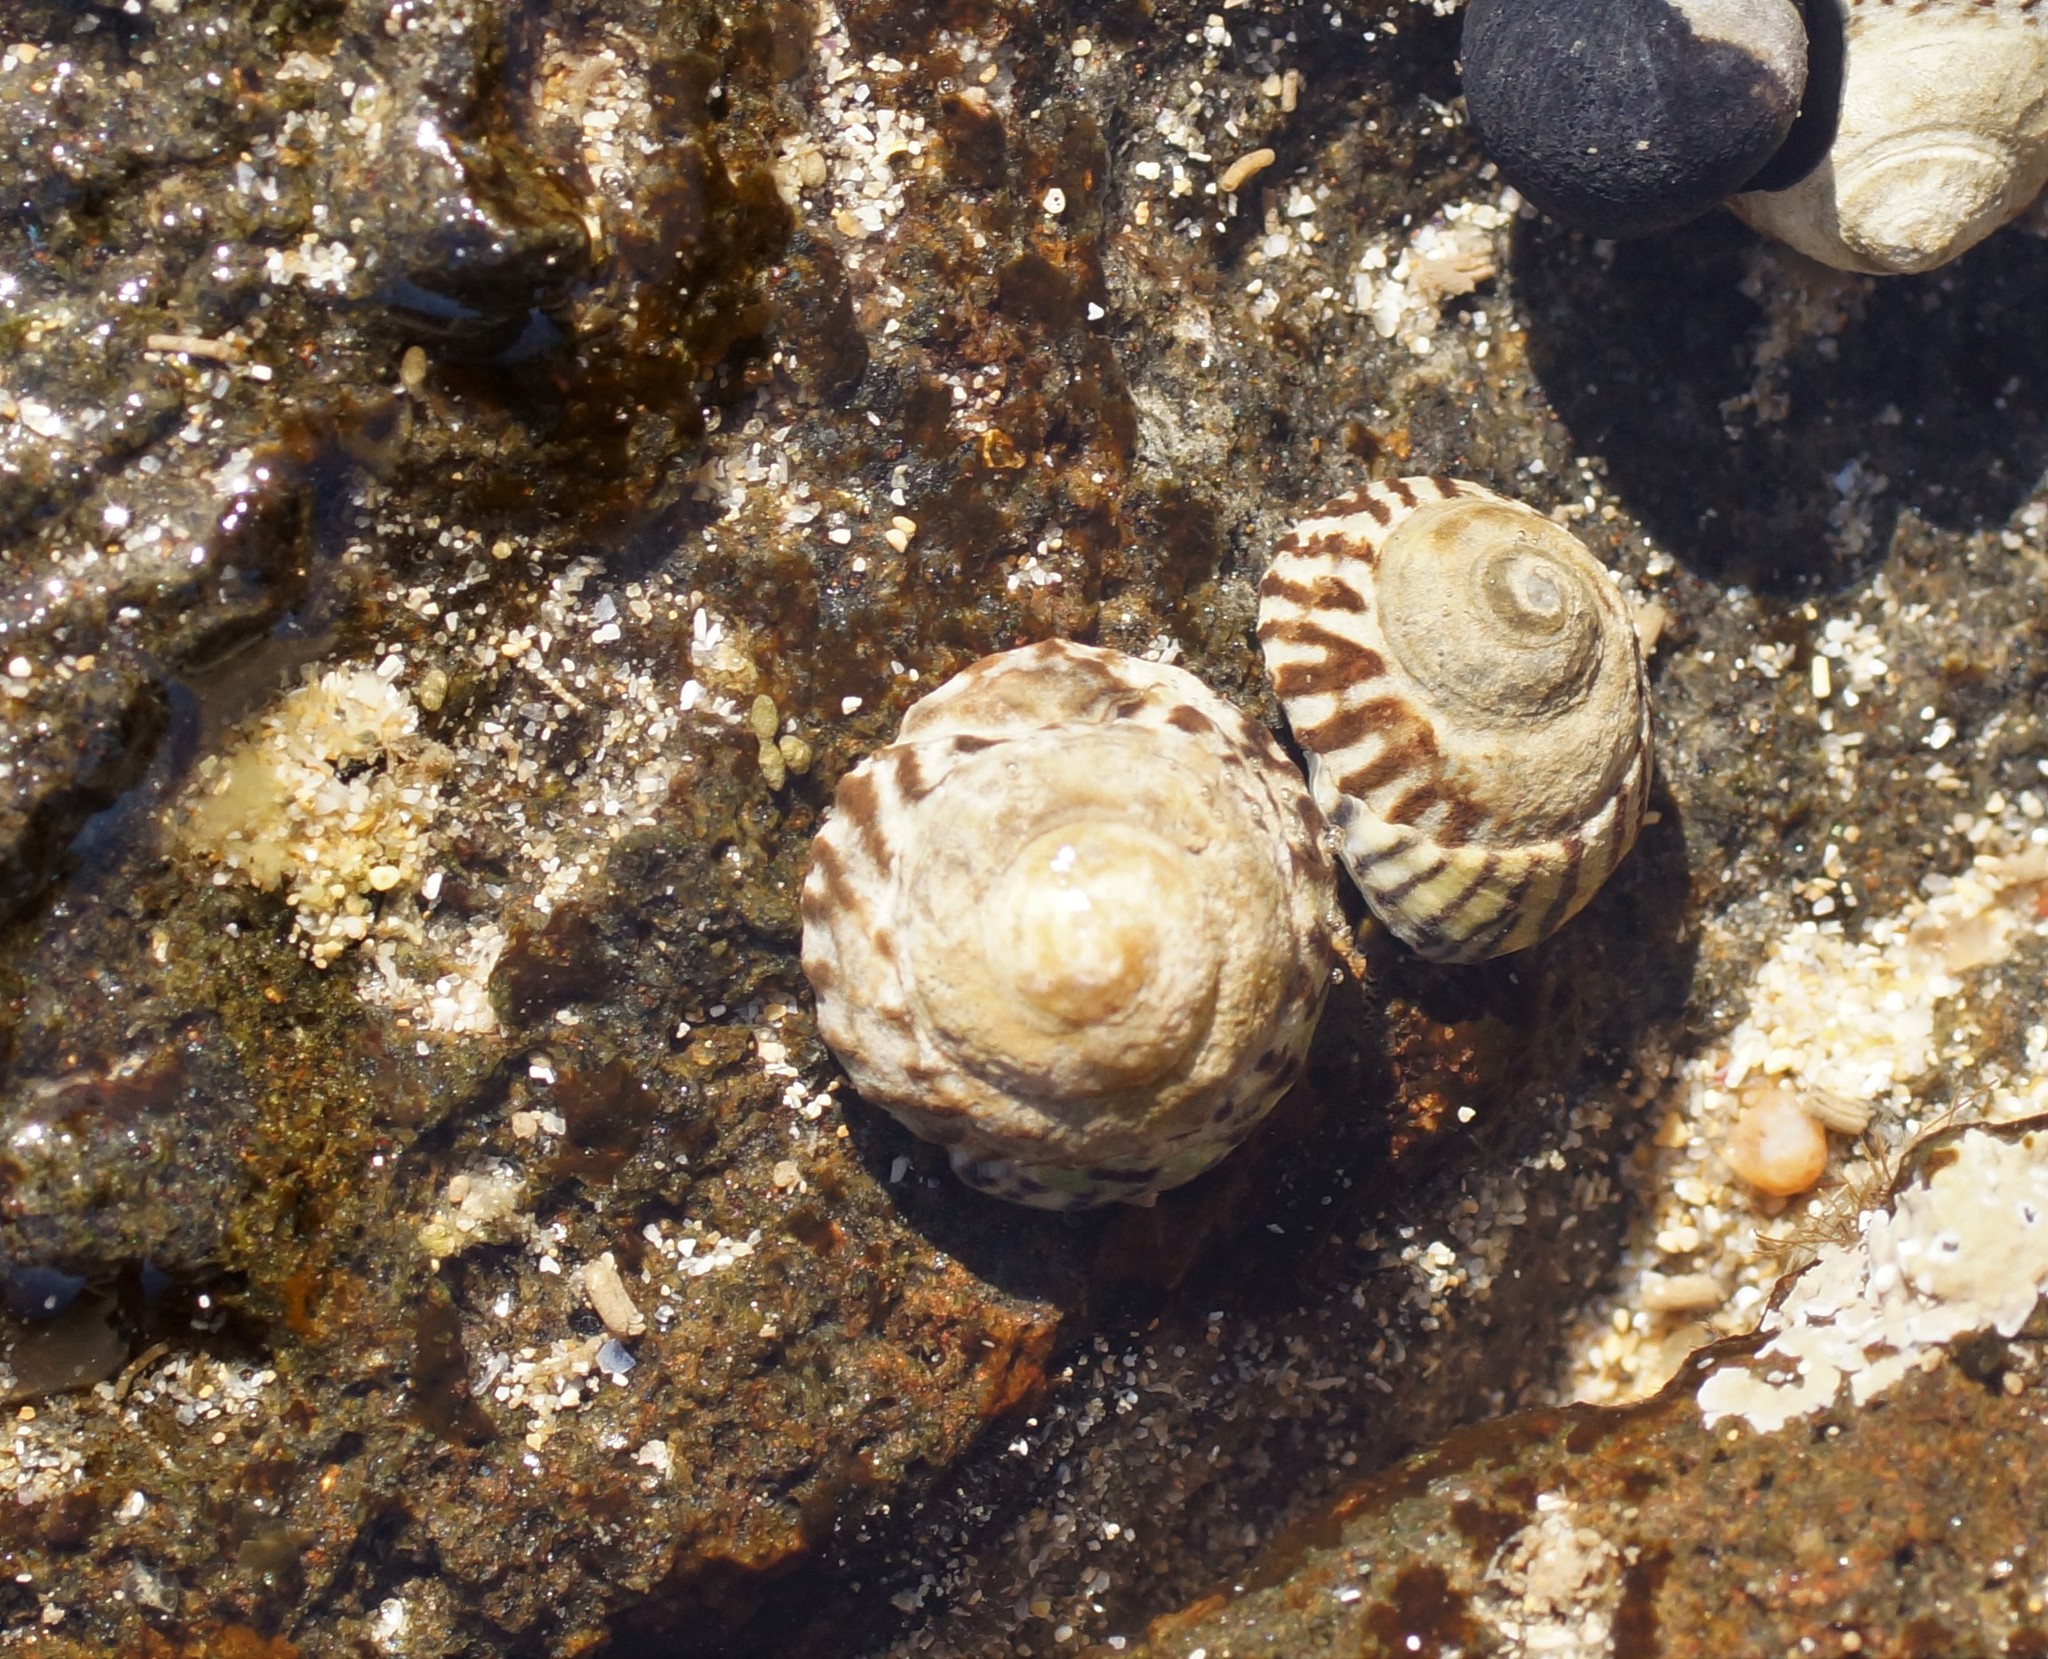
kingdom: Animalia
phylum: Mollusca
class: Gastropoda
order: Littorinimorpha
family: Littorinidae
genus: Bembicium
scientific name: Bembicium nanum
